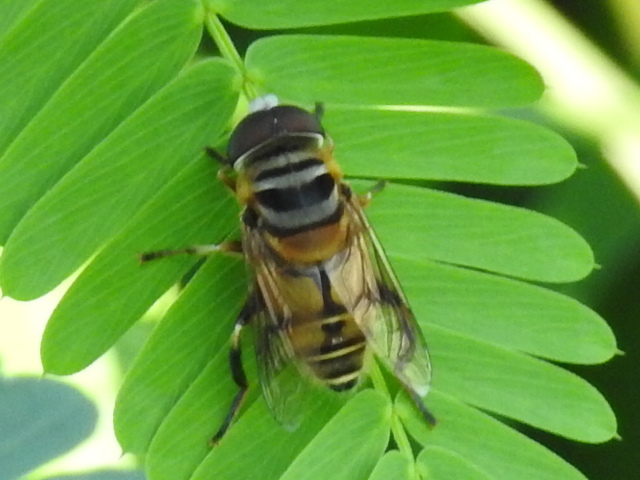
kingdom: Animalia
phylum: Arthropoda
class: Insecta
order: Diptera
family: Syrphidae
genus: Palpada
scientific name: Palpada vinetorum
